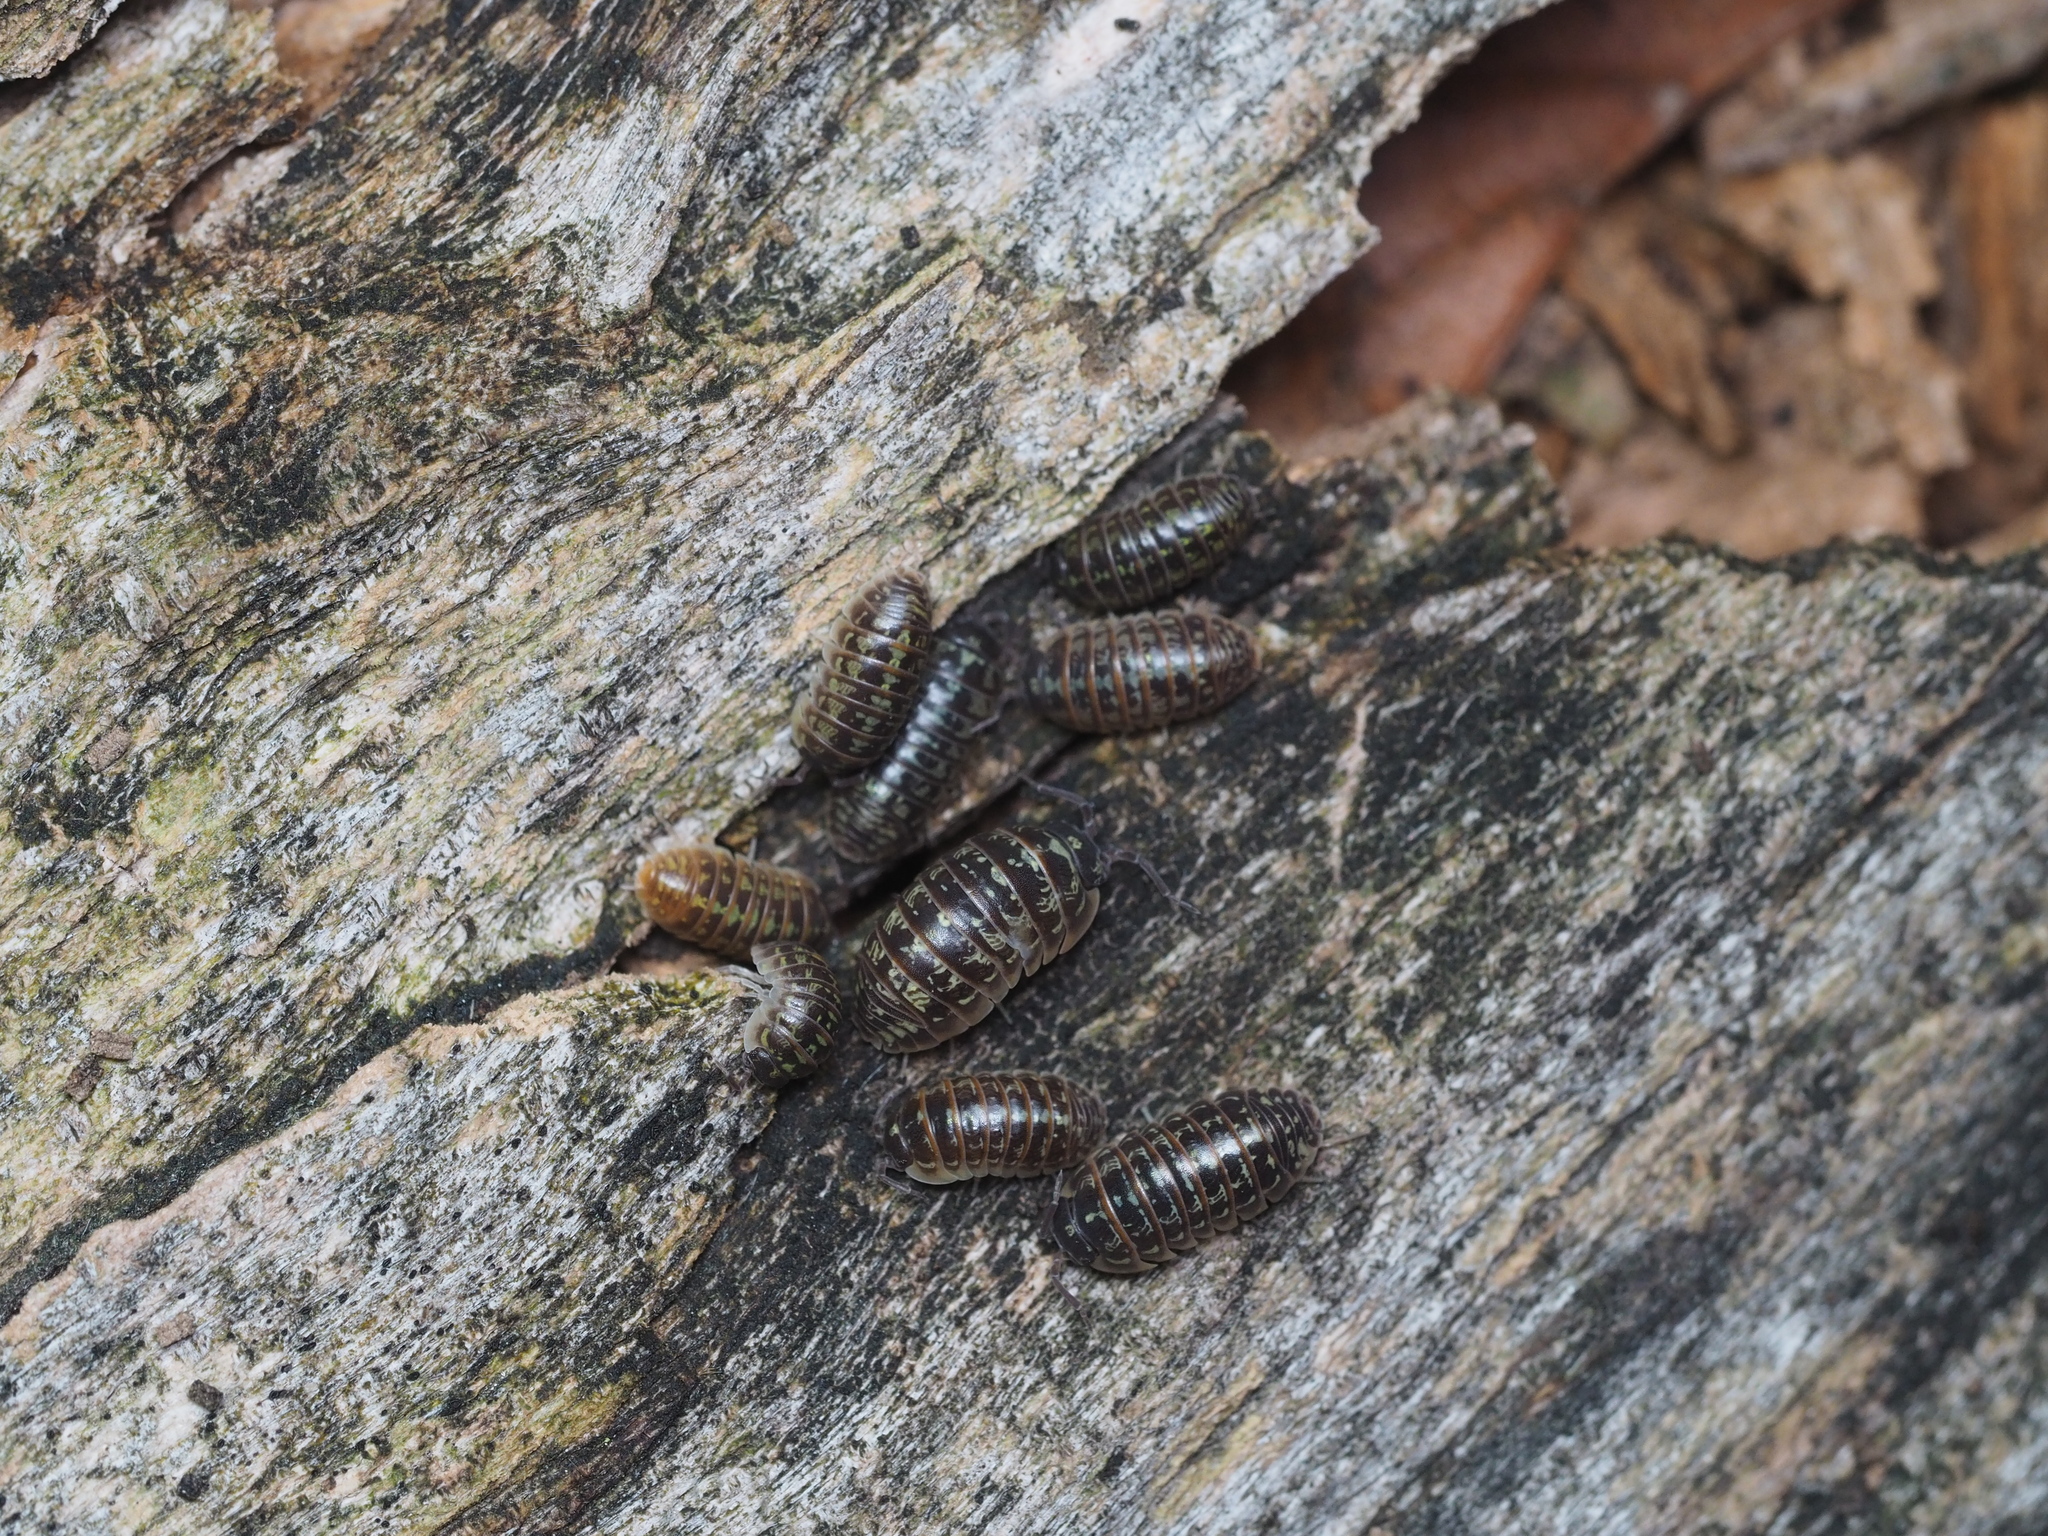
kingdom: Animalia
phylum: Arthropoda
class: Malacostraca
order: Isopoda
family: Armadillidiidae
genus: Armadillidium
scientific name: Armadillidium versicolor
